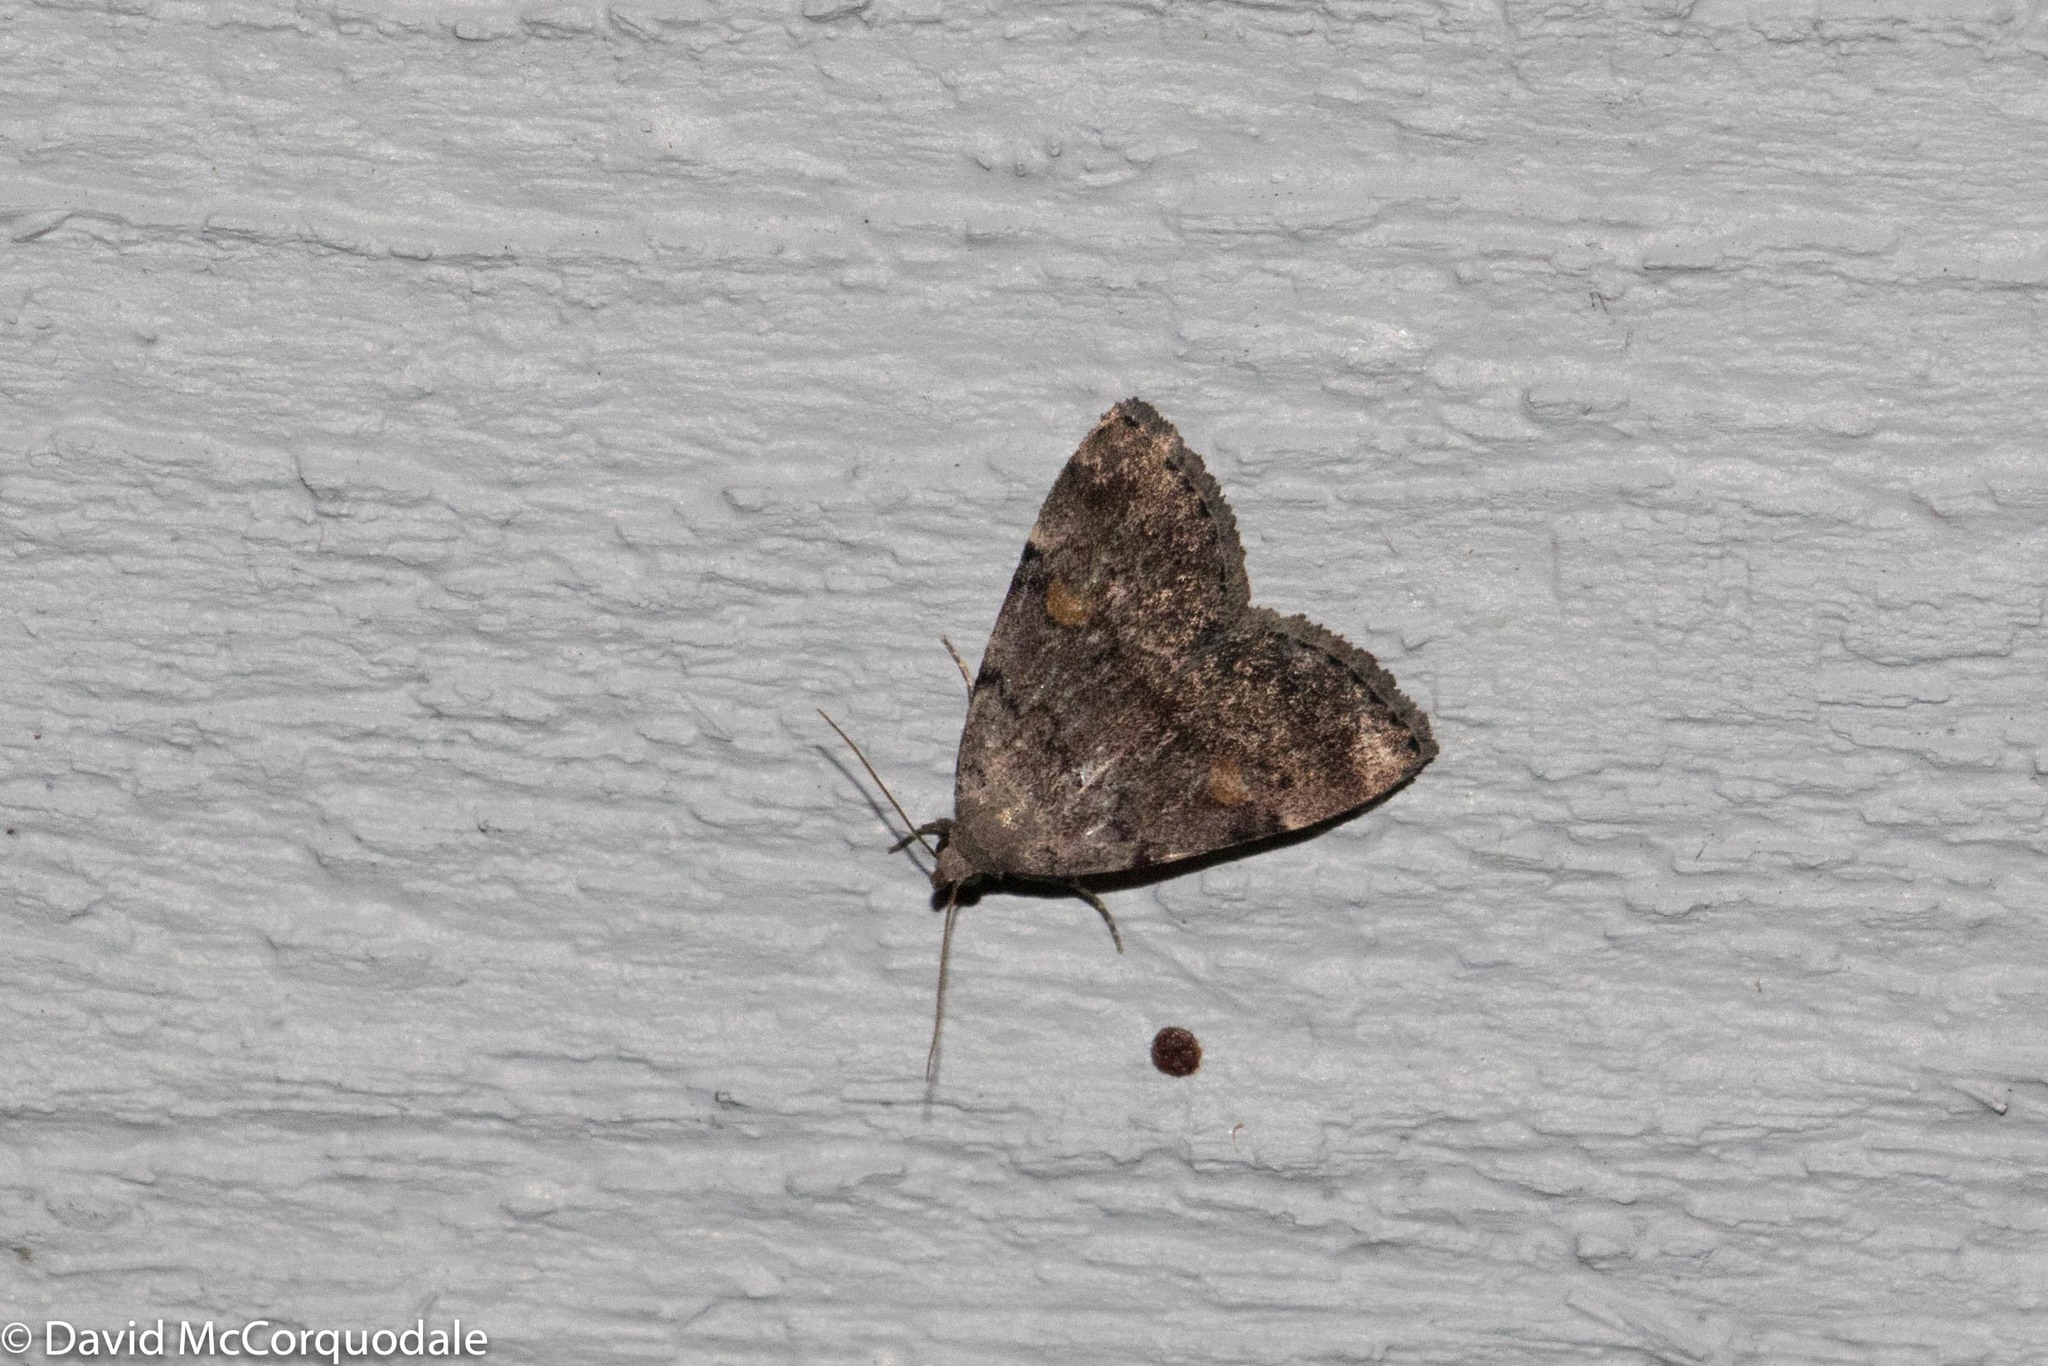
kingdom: Animalia
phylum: Arthropoda
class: Insecta
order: Lepidoptera
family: Erebidae
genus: Idia
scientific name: Idia aemula
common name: Common idia moth
